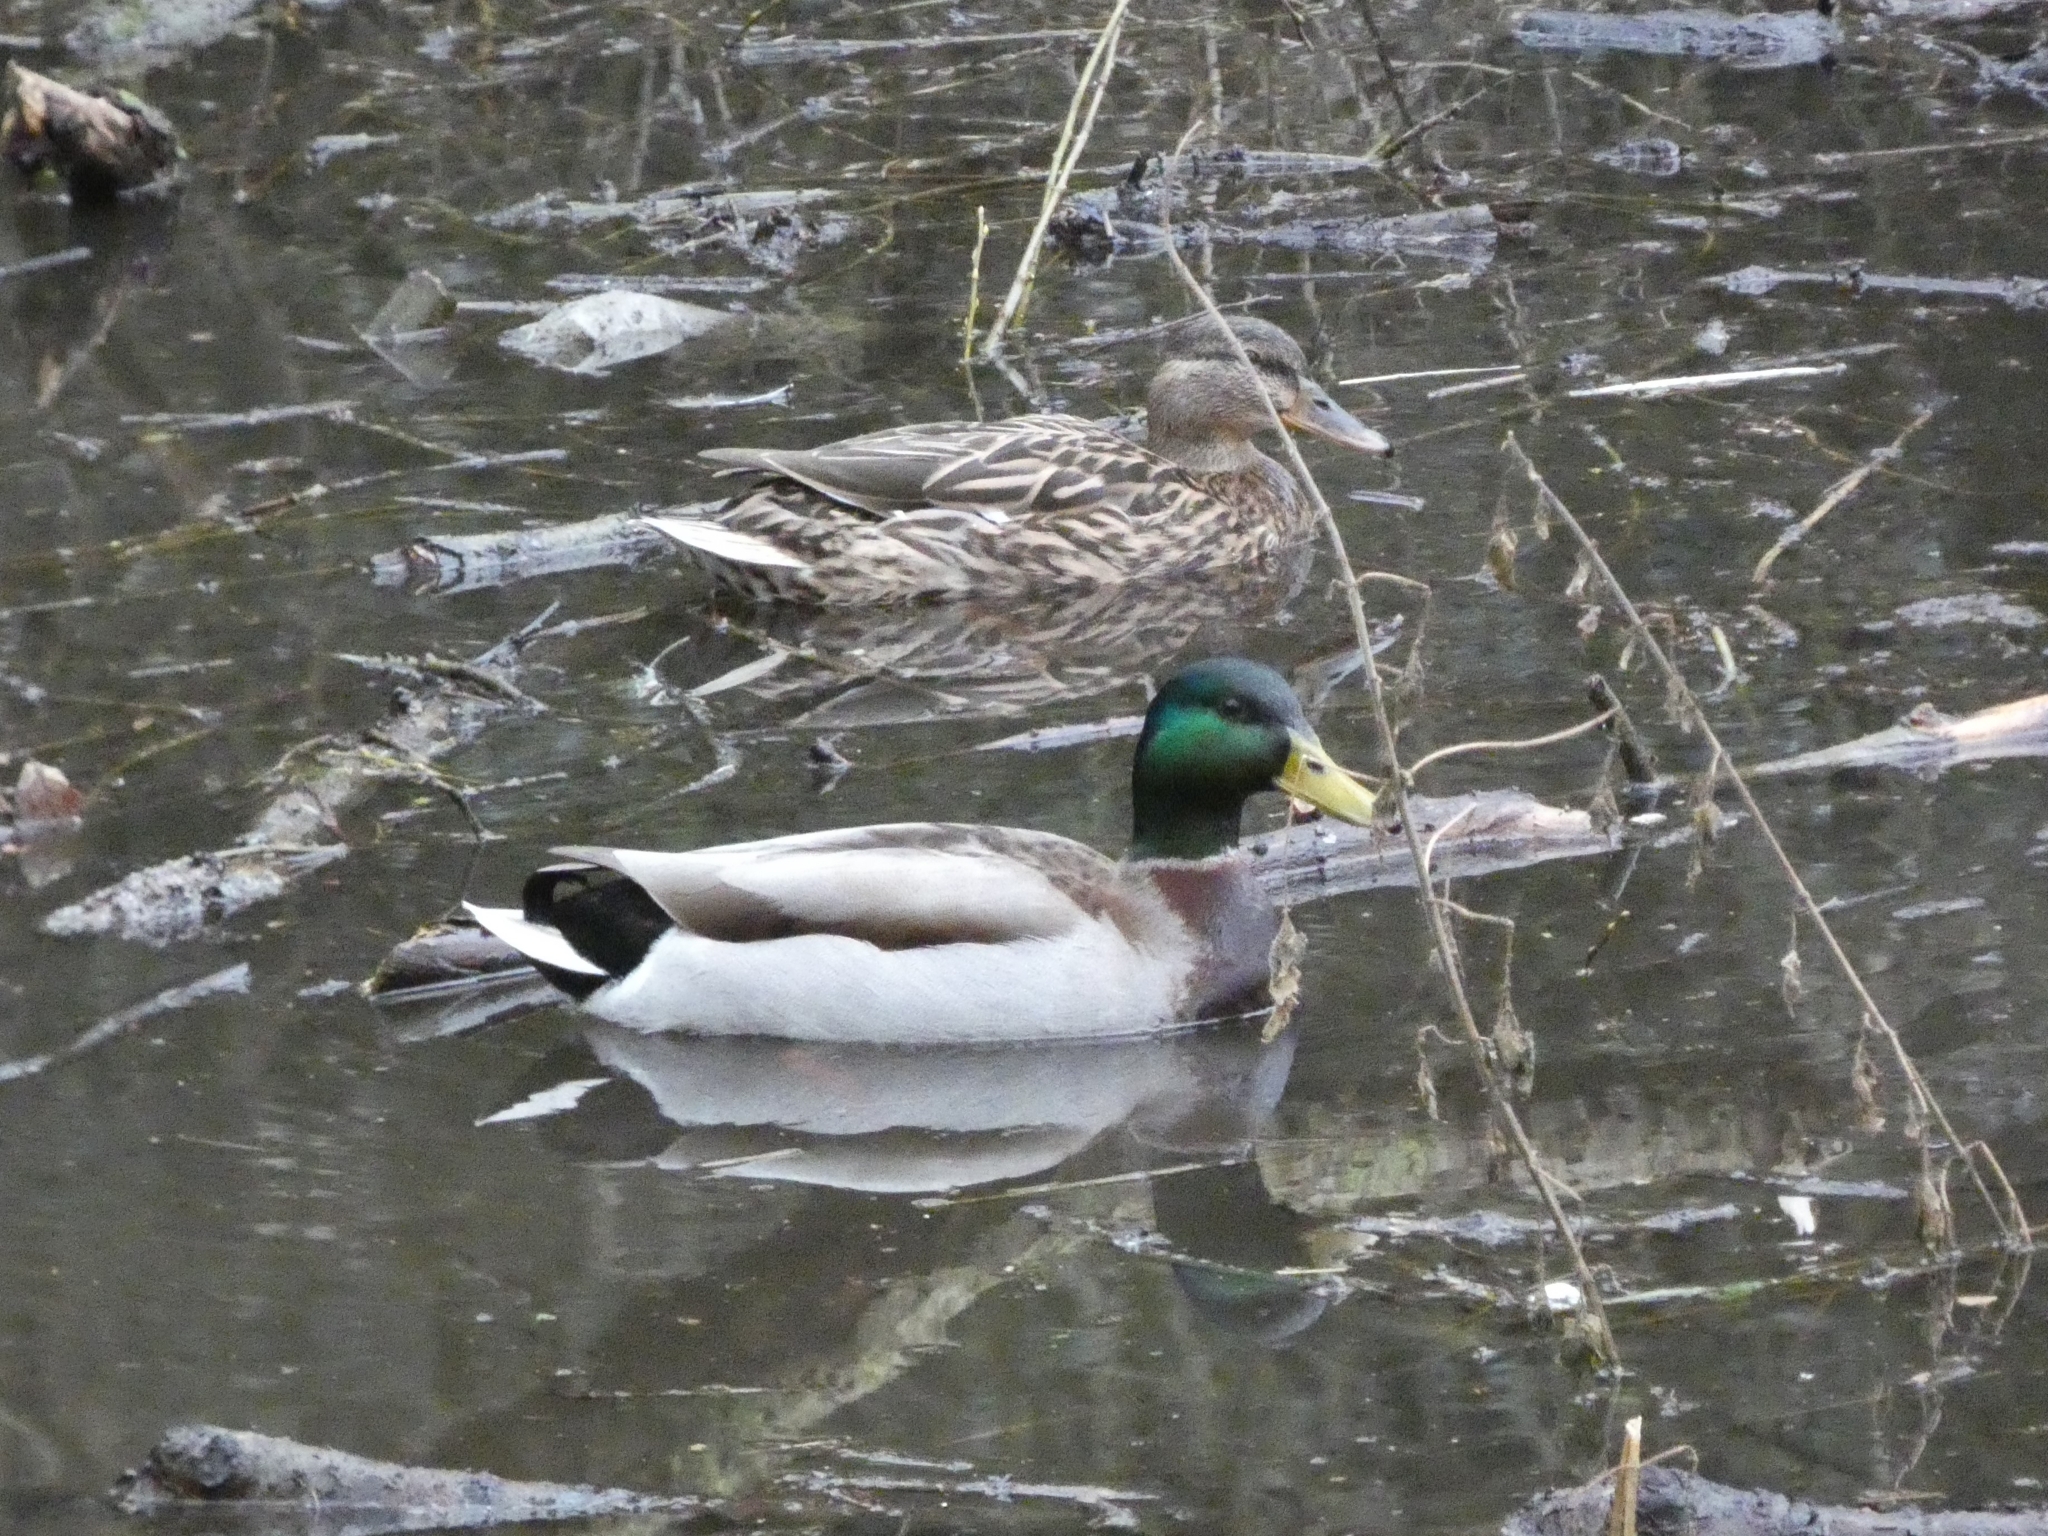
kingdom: Animalia
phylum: Chordata
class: Aves
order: Anseriformes
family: Anatidae
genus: Anas
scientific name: Anas platyrhynchos
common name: Mallard
